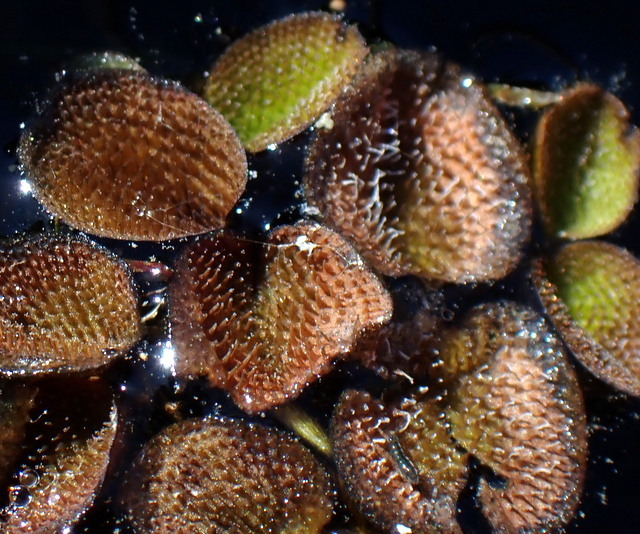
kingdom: Plantae
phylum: Tracheophyta
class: Polypodiopsida
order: Salviniales
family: Salviniaceae
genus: Salvinia
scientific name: Salvinia minima
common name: Water spangles
